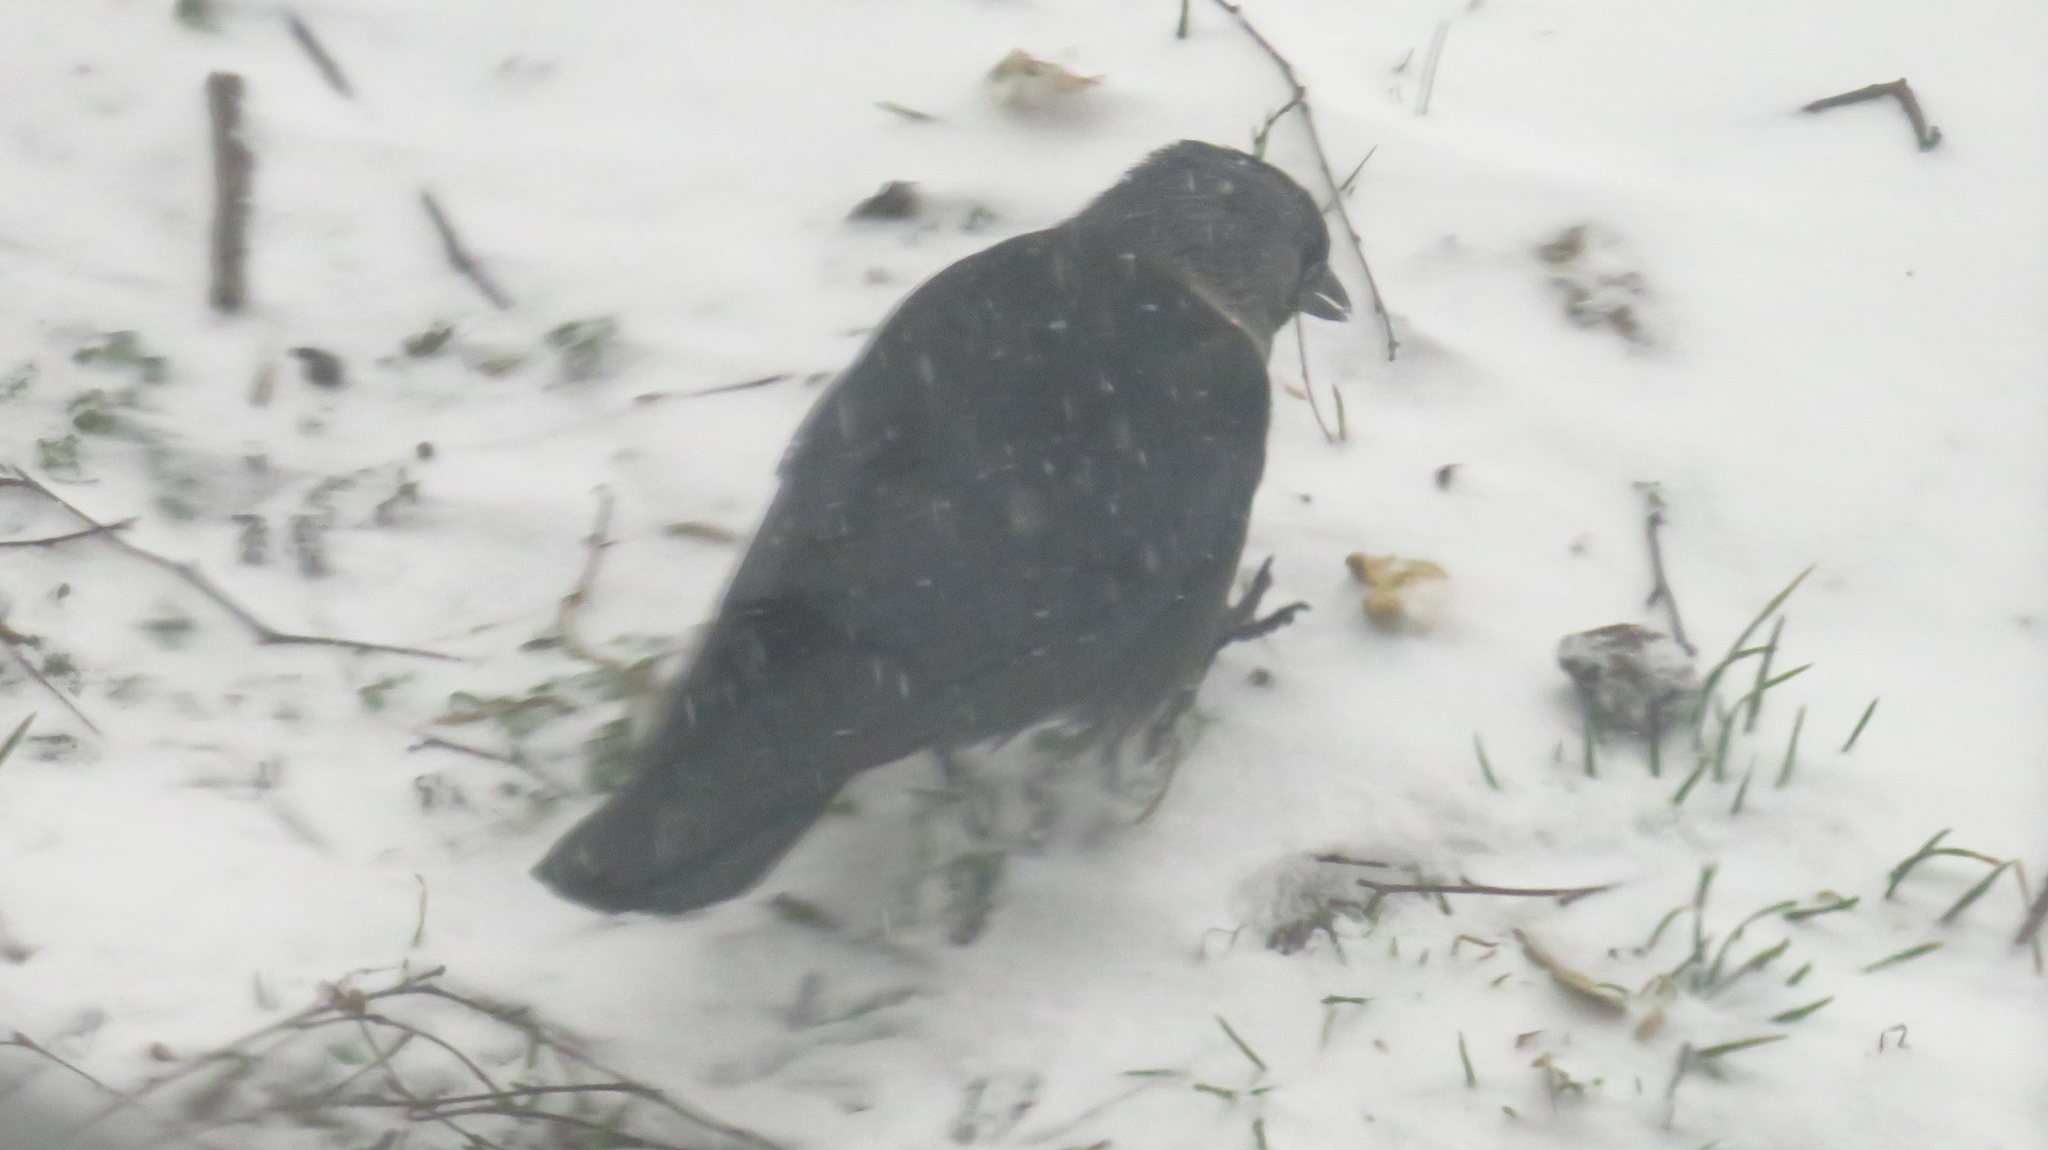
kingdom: Animalia
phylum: Chordata
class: Aves
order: Passeriformes
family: Corvidae
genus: Coloeus
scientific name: Coloeus monedula
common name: Western jackdaw
